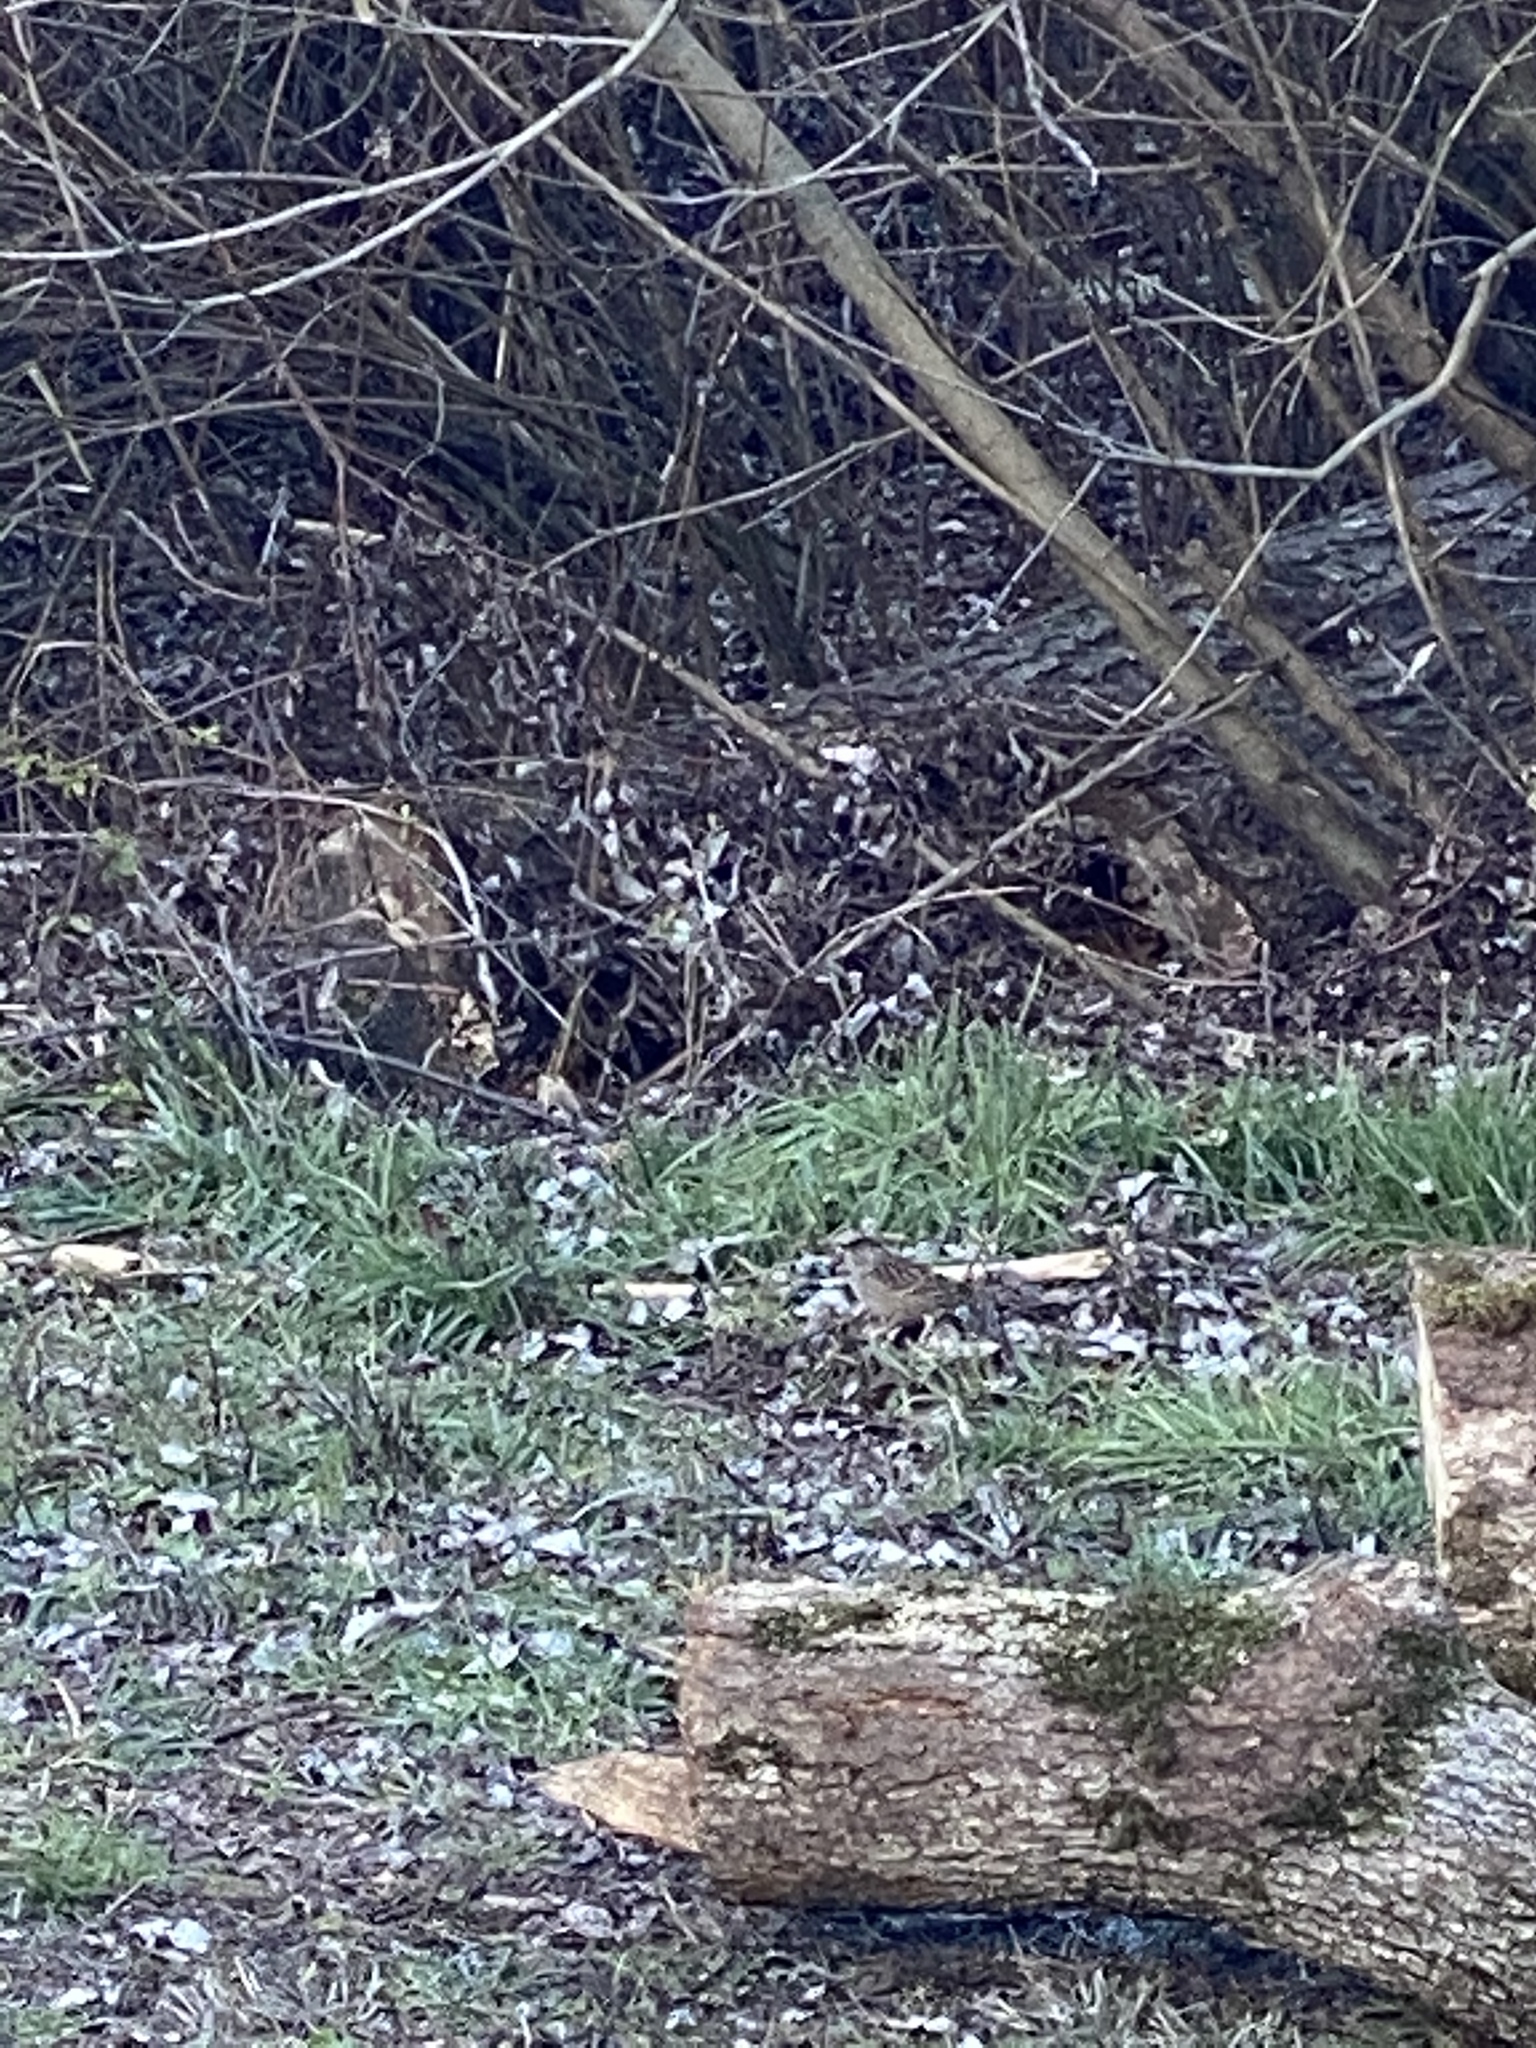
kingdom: Animalia
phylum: Chordata
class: Aves
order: Passeriformes
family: Passerellidae
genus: Zonotrichia
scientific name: Zonotrichia atricapilla
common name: Golden-crowned sparrow
